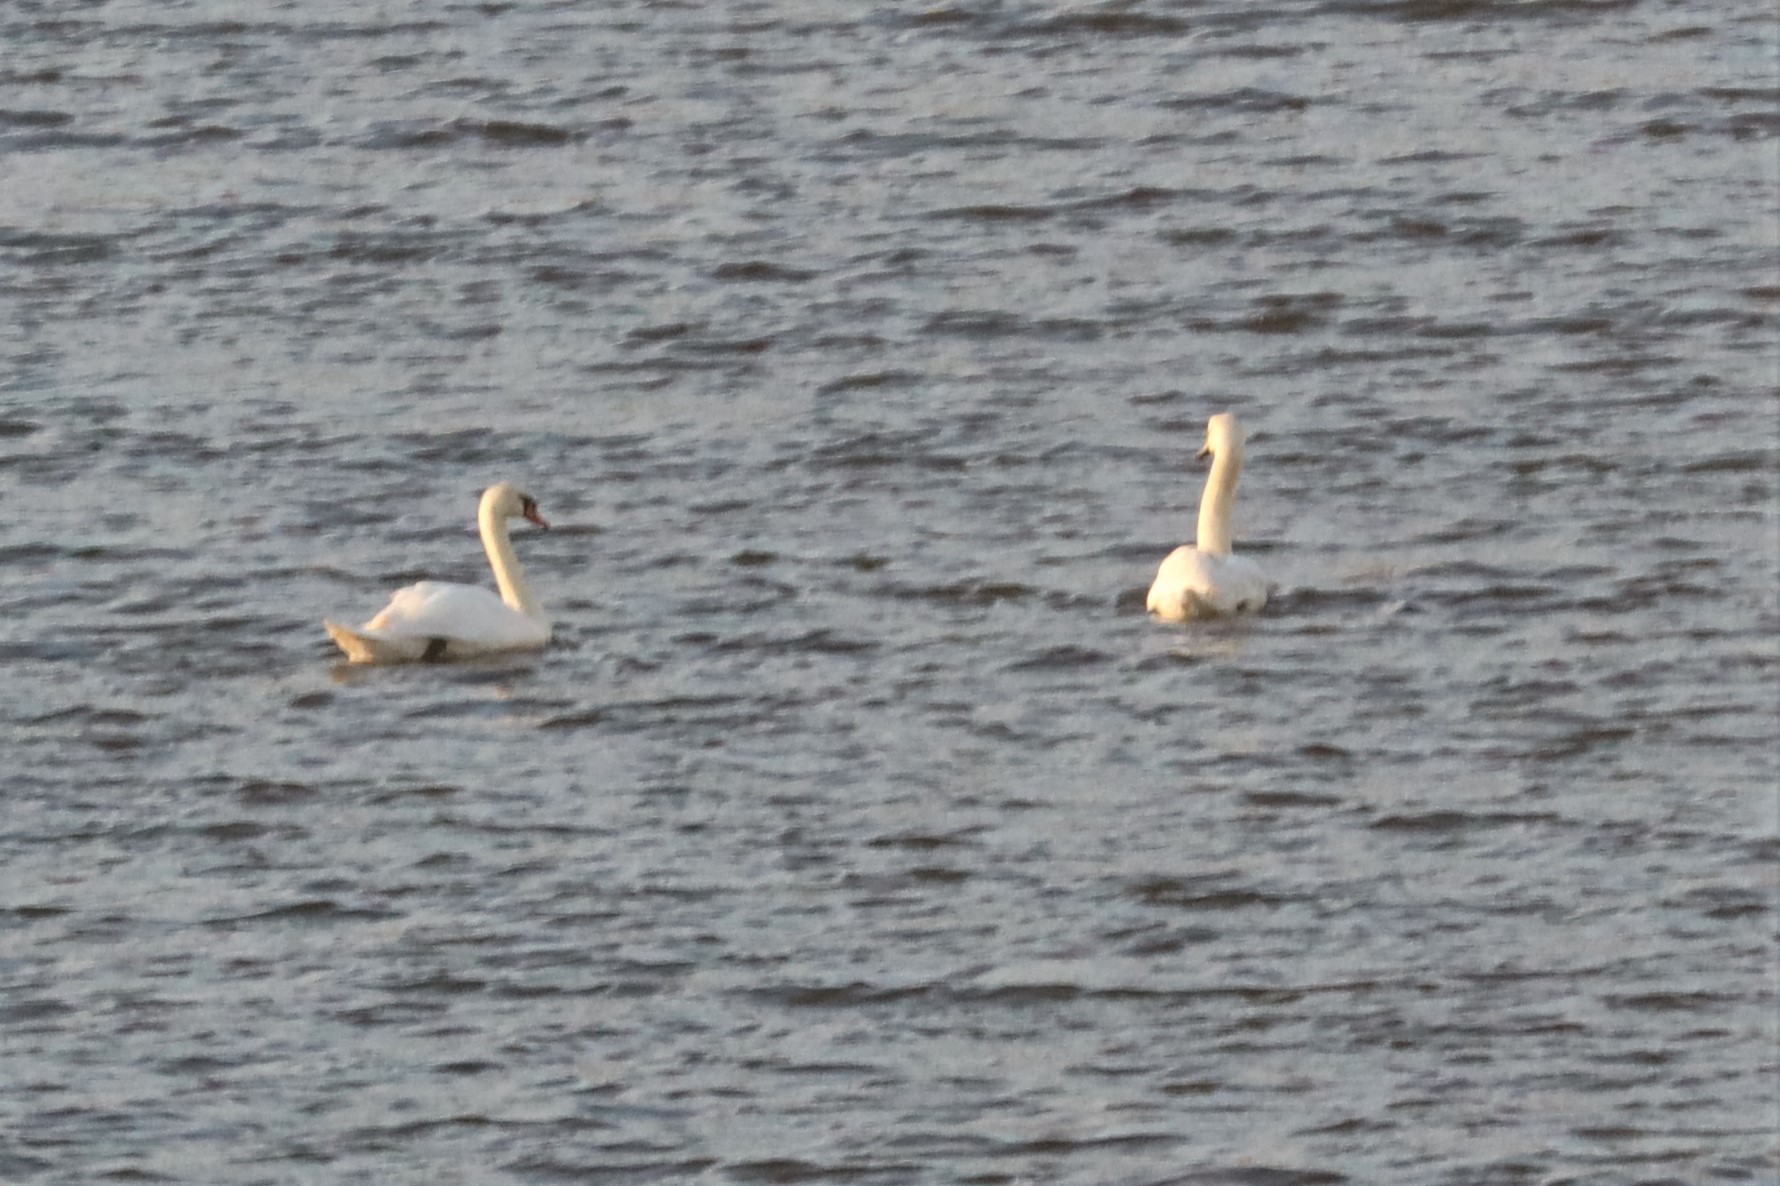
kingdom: Animalia
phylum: Chordata
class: Aves
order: Anseriformes
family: Anatidae
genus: Cygnus
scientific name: Cygnus olor
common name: Mute swan
